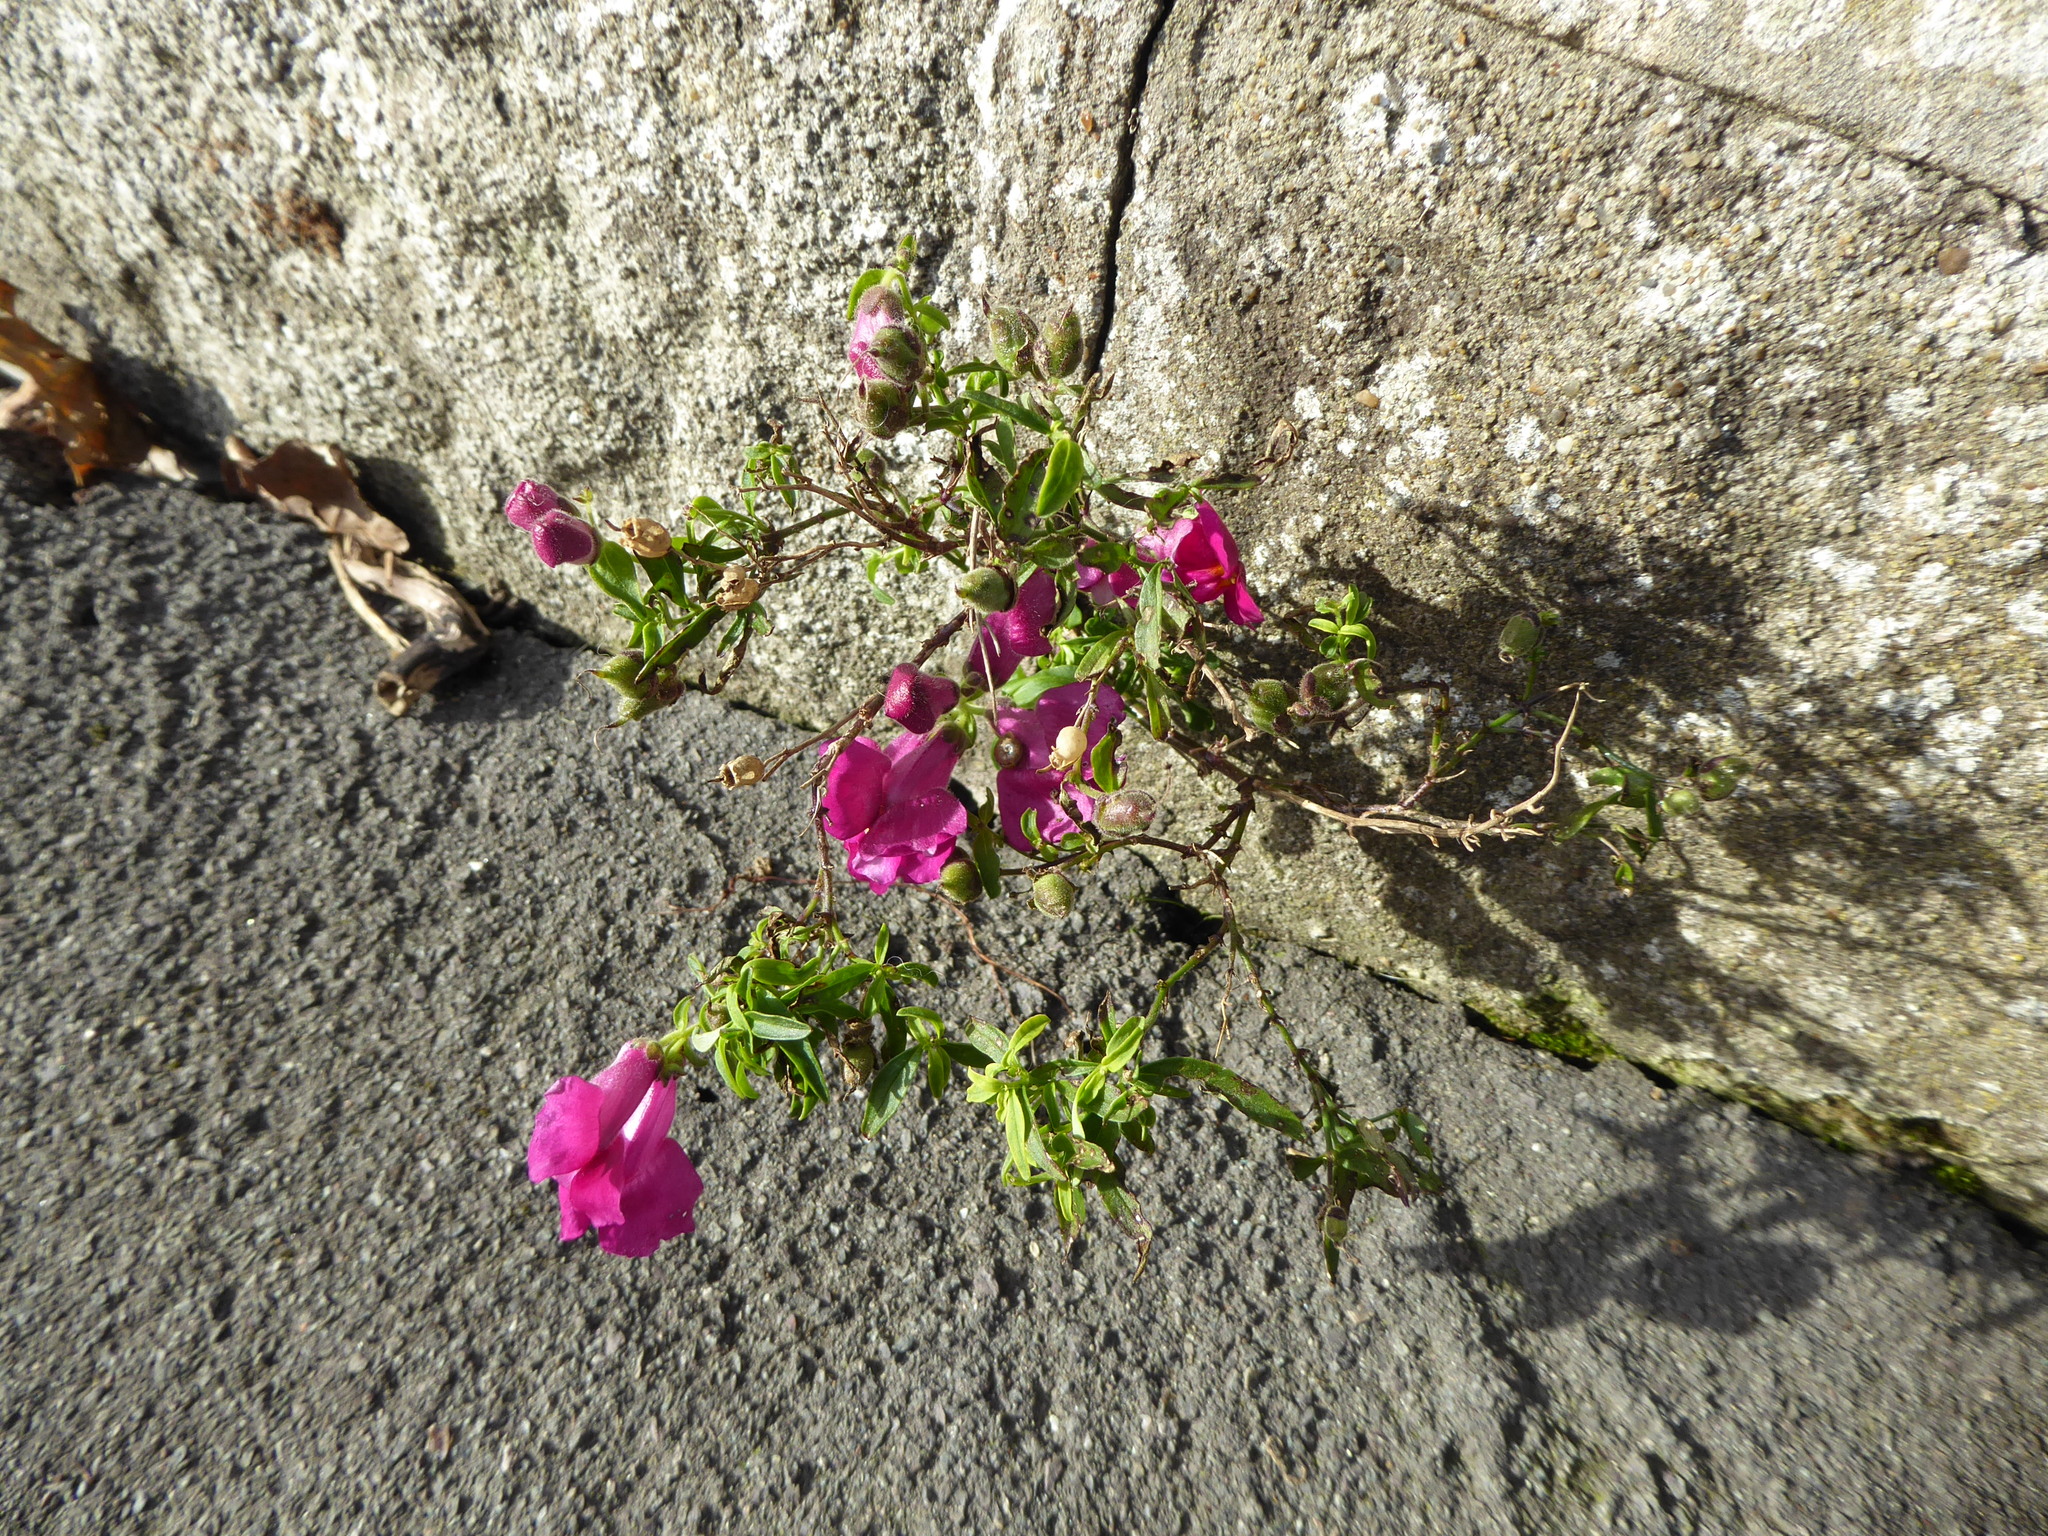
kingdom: Plantae
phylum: Tracheophyta
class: Magnoliopsida
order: Lamiales
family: Plantaginaceae
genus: Antirrhinum
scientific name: Antirrhinum majus
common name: Snapdragon
